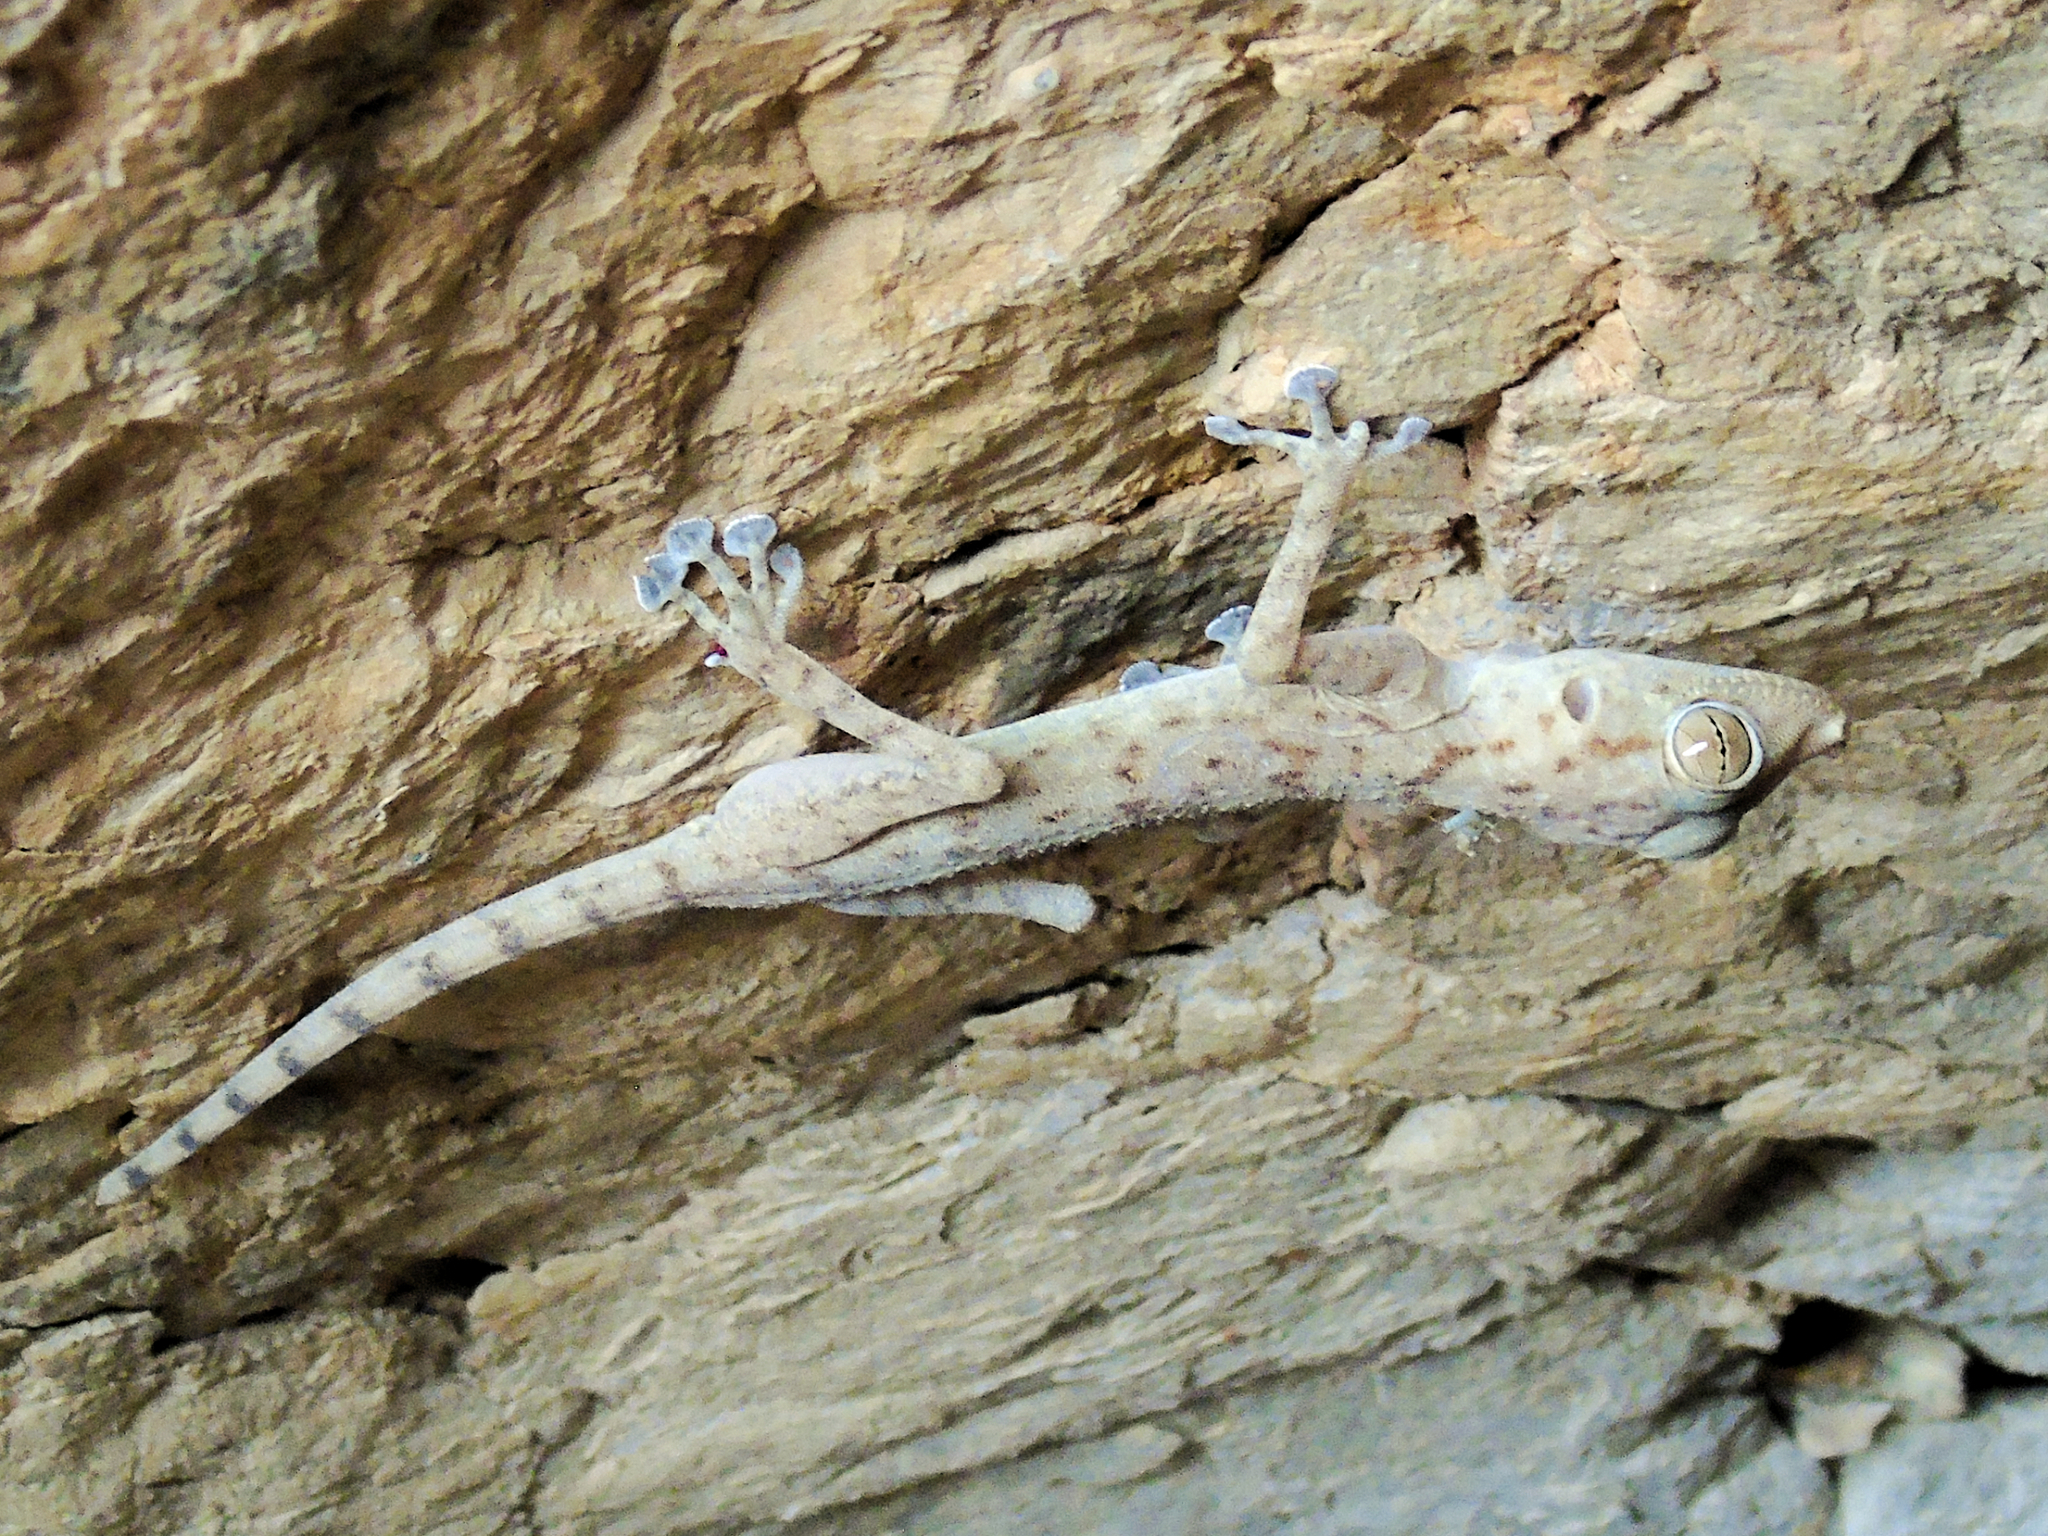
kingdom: Animalia
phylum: Chordata
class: Squamata
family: Phyllodactylidae
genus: Ptyodactylus
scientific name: Ptyodactylus ruusaljibalicus
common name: Ruus al jibal fan-footed gecko
